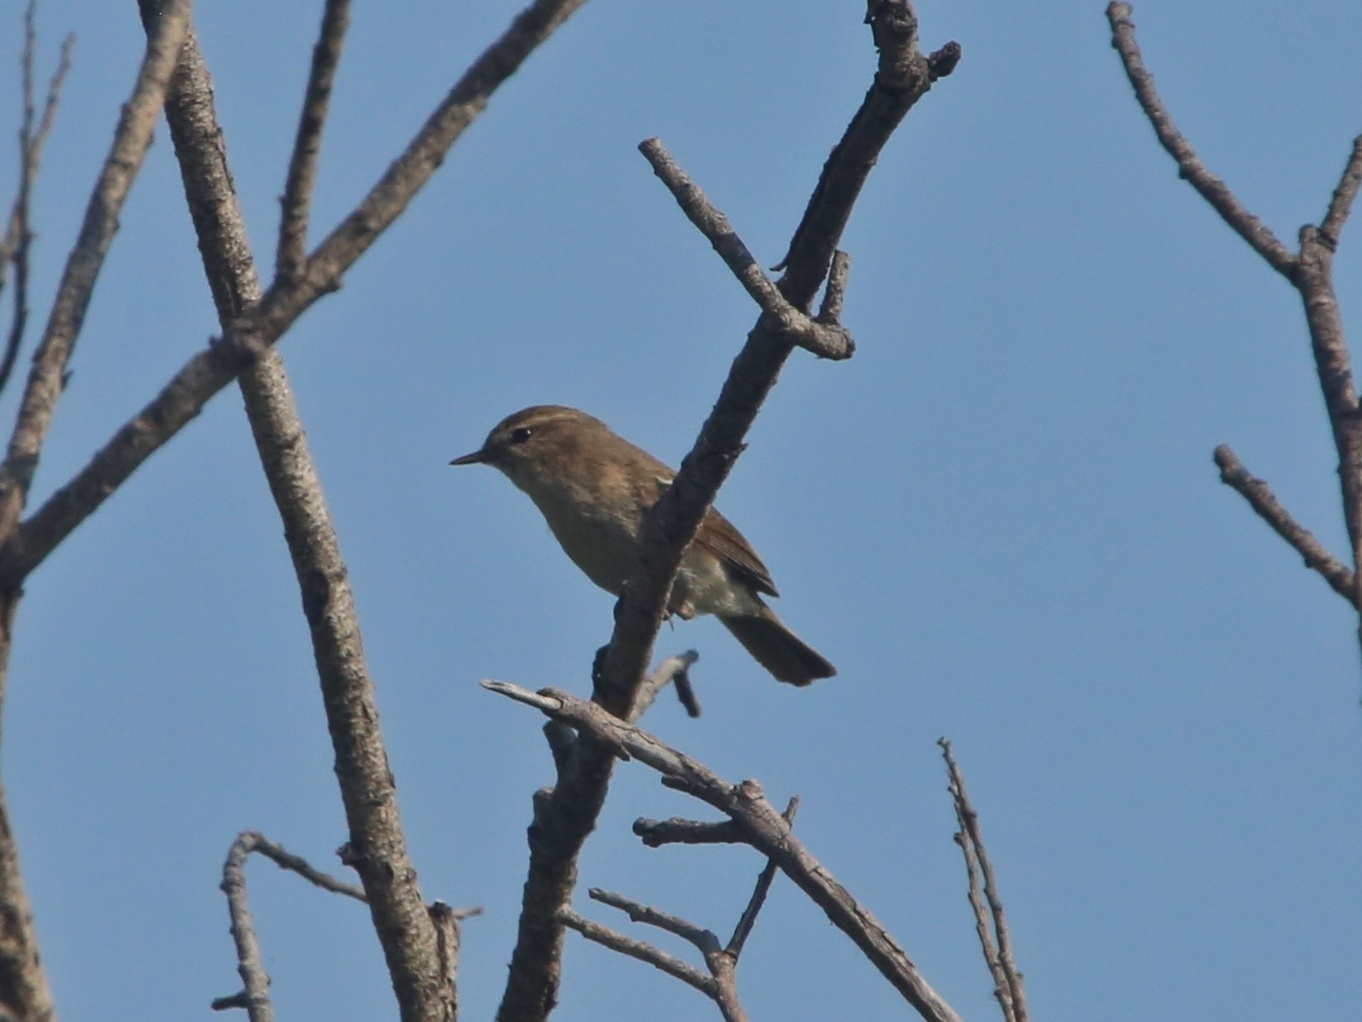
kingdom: Animalia
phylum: Chordata
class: Aves
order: Passeriformes
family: Phylloscopidae
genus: Phylloscopus
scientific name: Phylloscopus collybita
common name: Common chiffchaff
